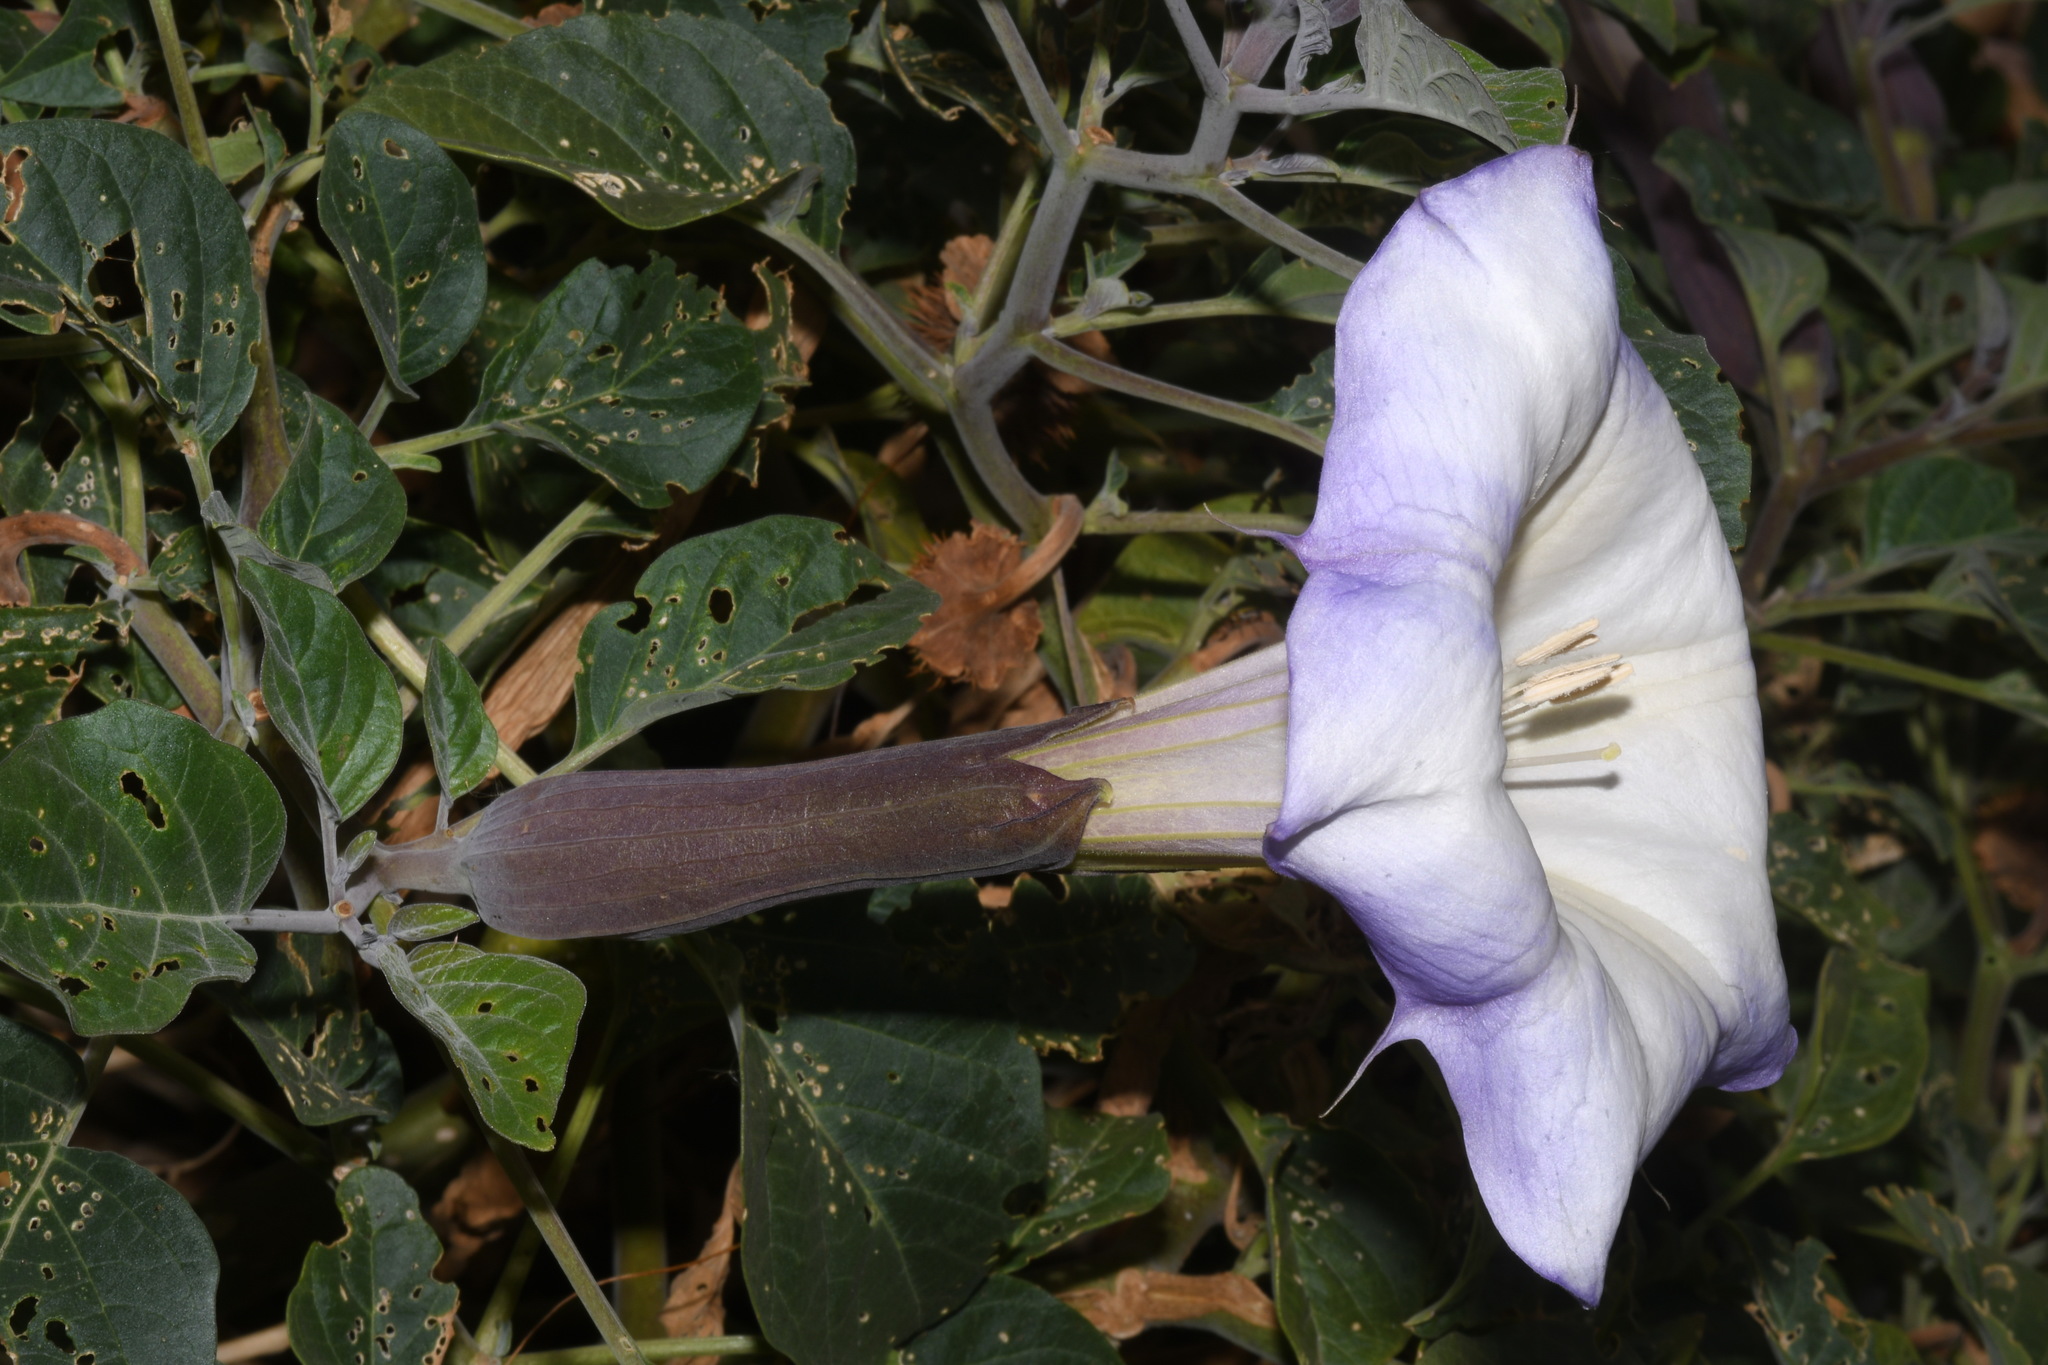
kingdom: Plantae
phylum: Tracheophyta
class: Magnoliopsida
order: Solanales
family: Solanaceae
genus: Datura
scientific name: Datura wrightii
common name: Sacred thorn-apple
